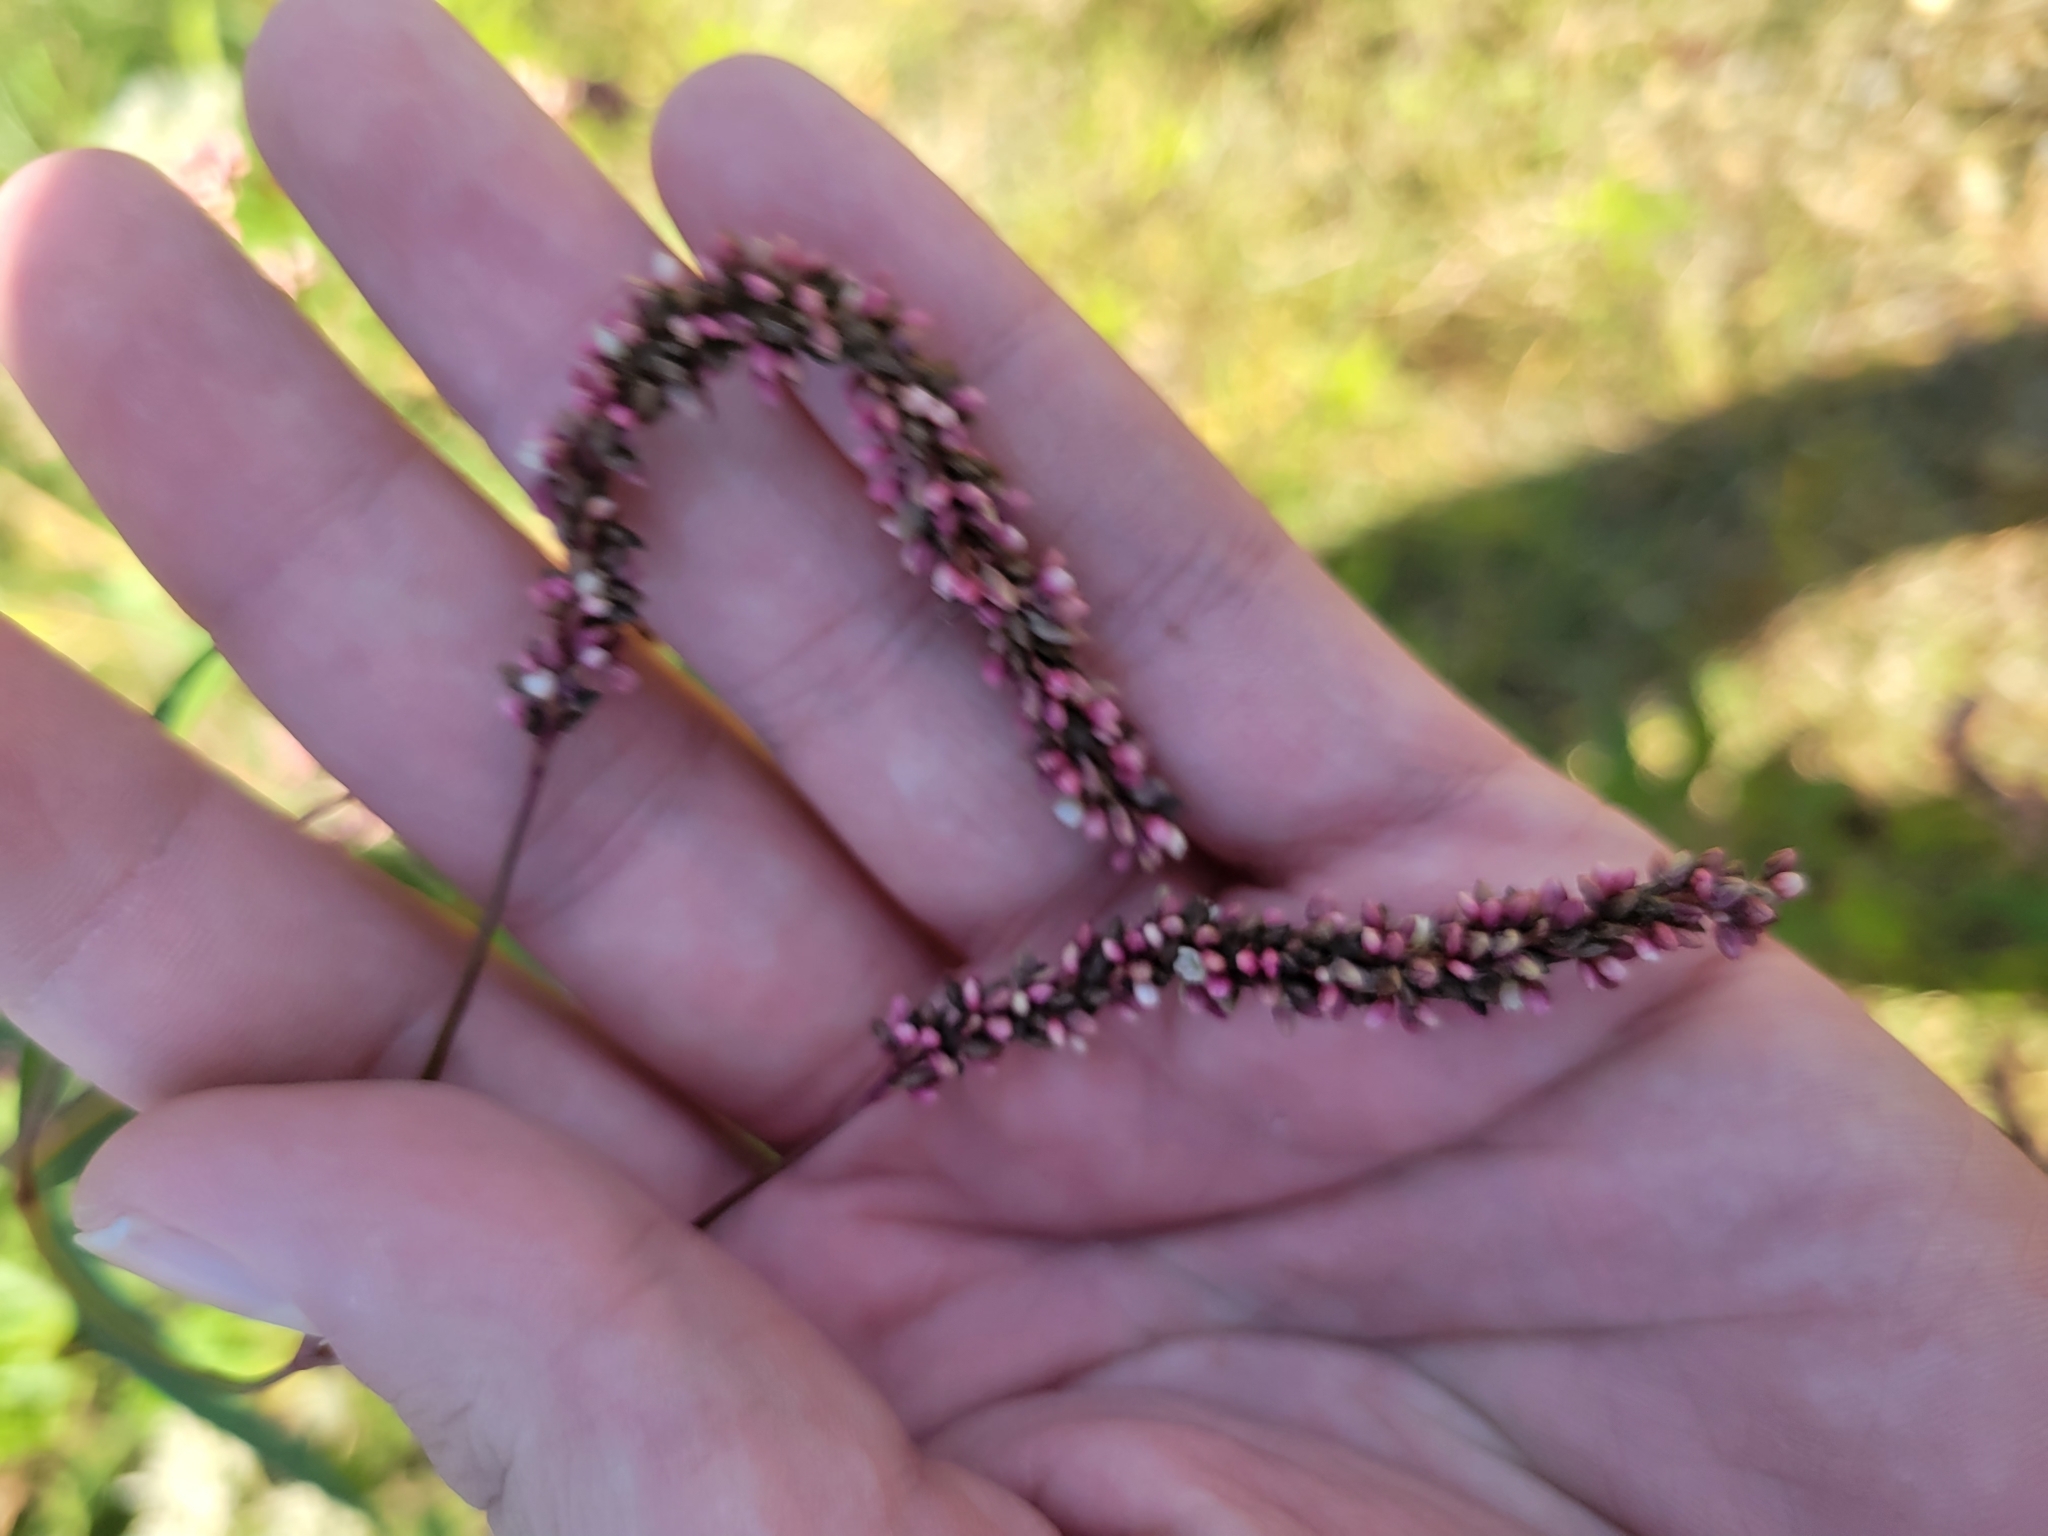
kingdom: Plantae
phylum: Tracheophyta
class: Magnoliopsida
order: Caryophyllales
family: Polygonaceae
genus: Persicaria
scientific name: Persicaria extremiorientalis
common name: Far-eastern smartweed
